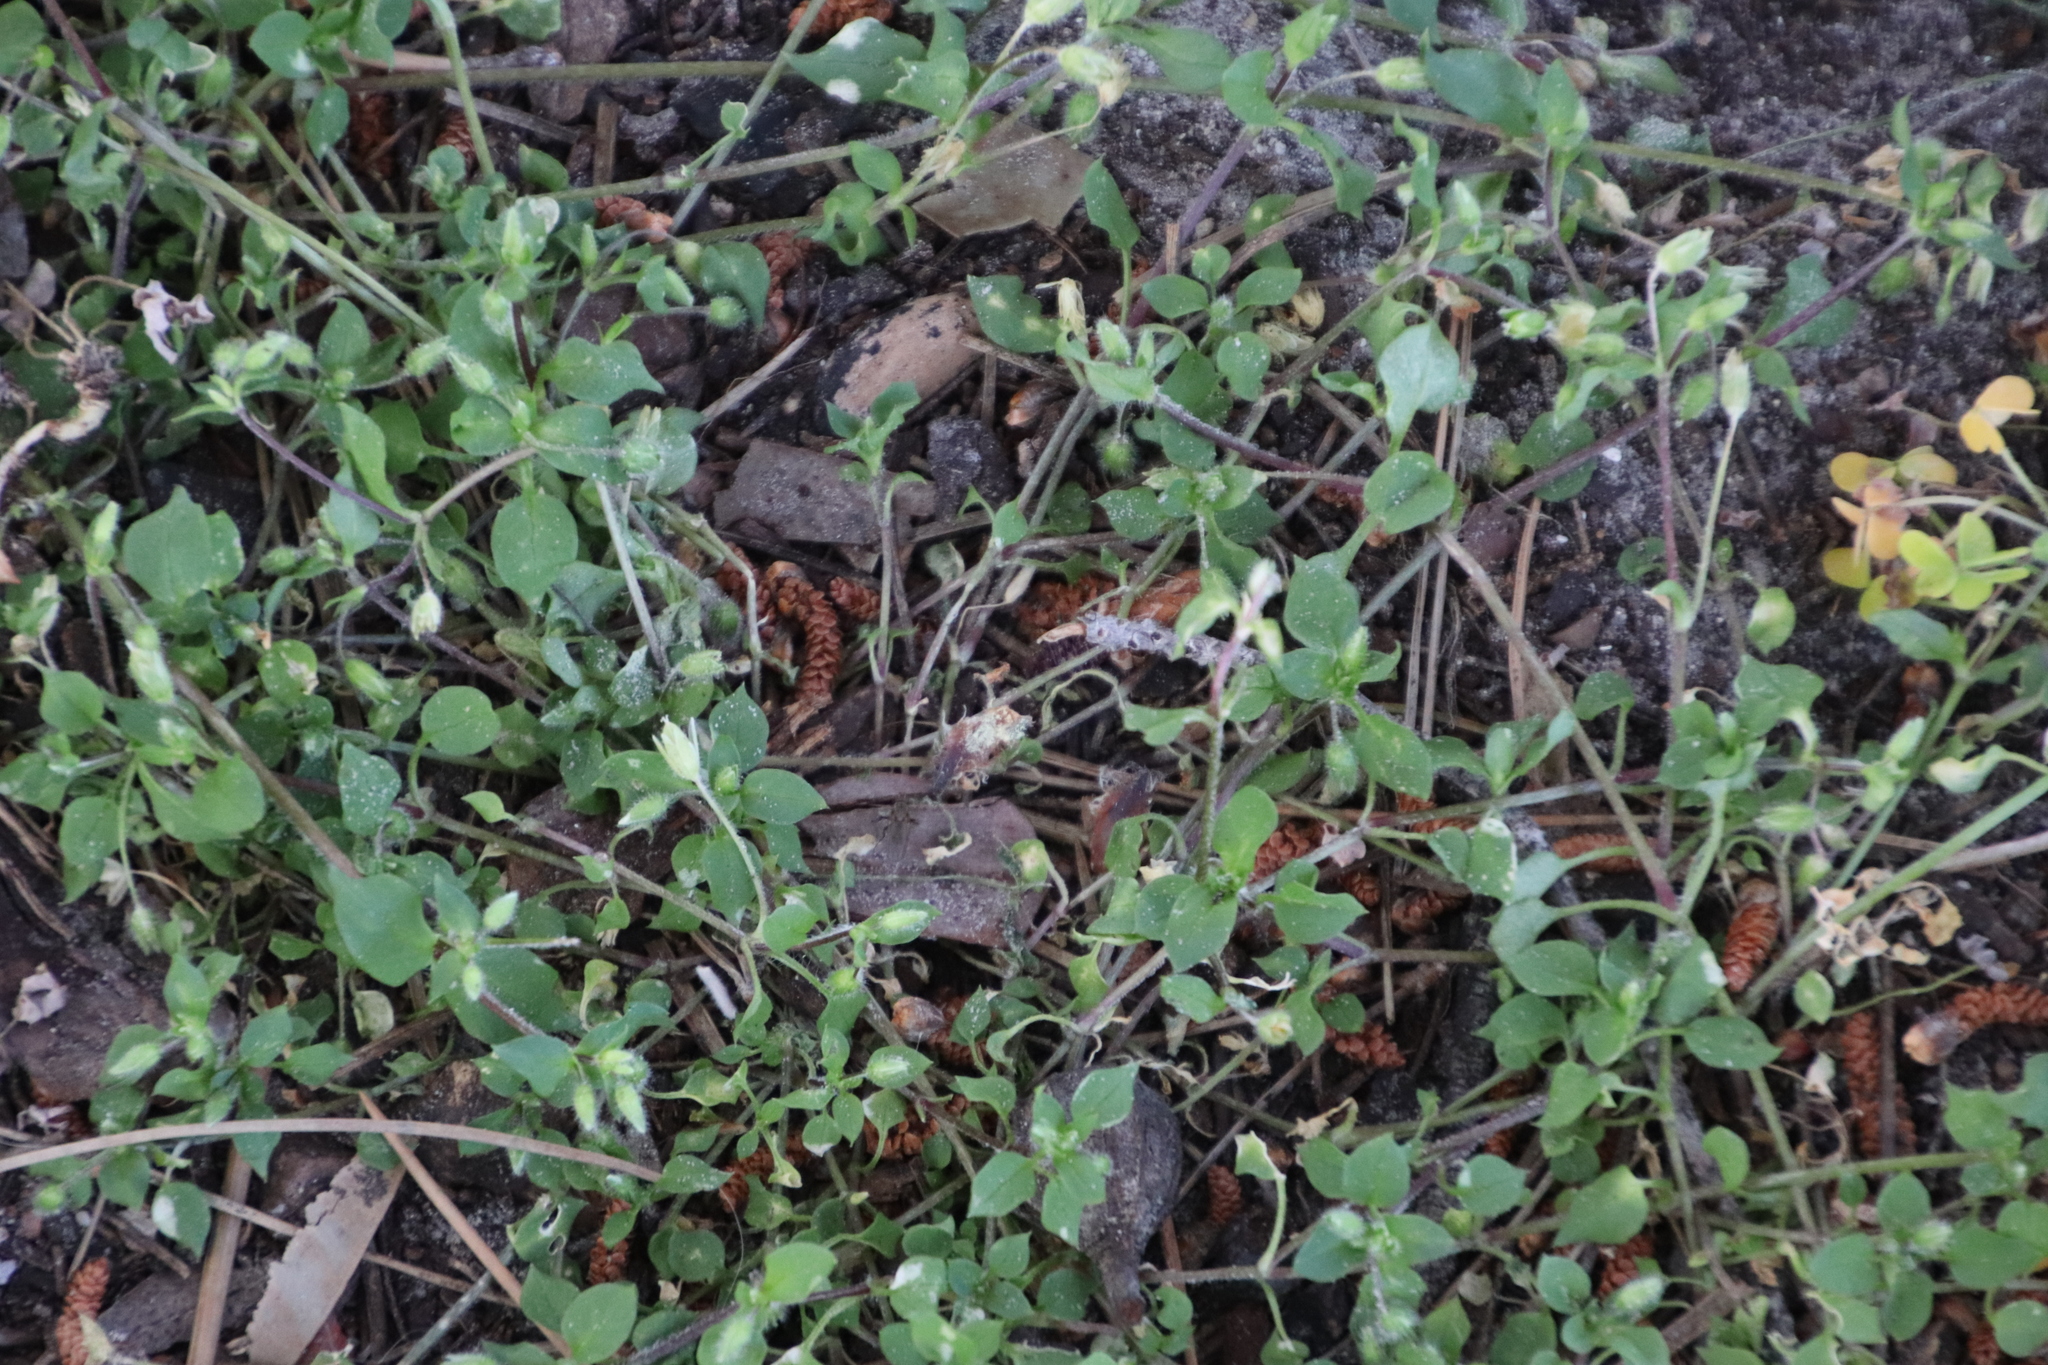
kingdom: Plantae
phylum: Tracheophyta
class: Magnoliopsida
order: Caryophyllales
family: Caryophyllaceae
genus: Stellaria
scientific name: Stellaria media
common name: Common chickweed
